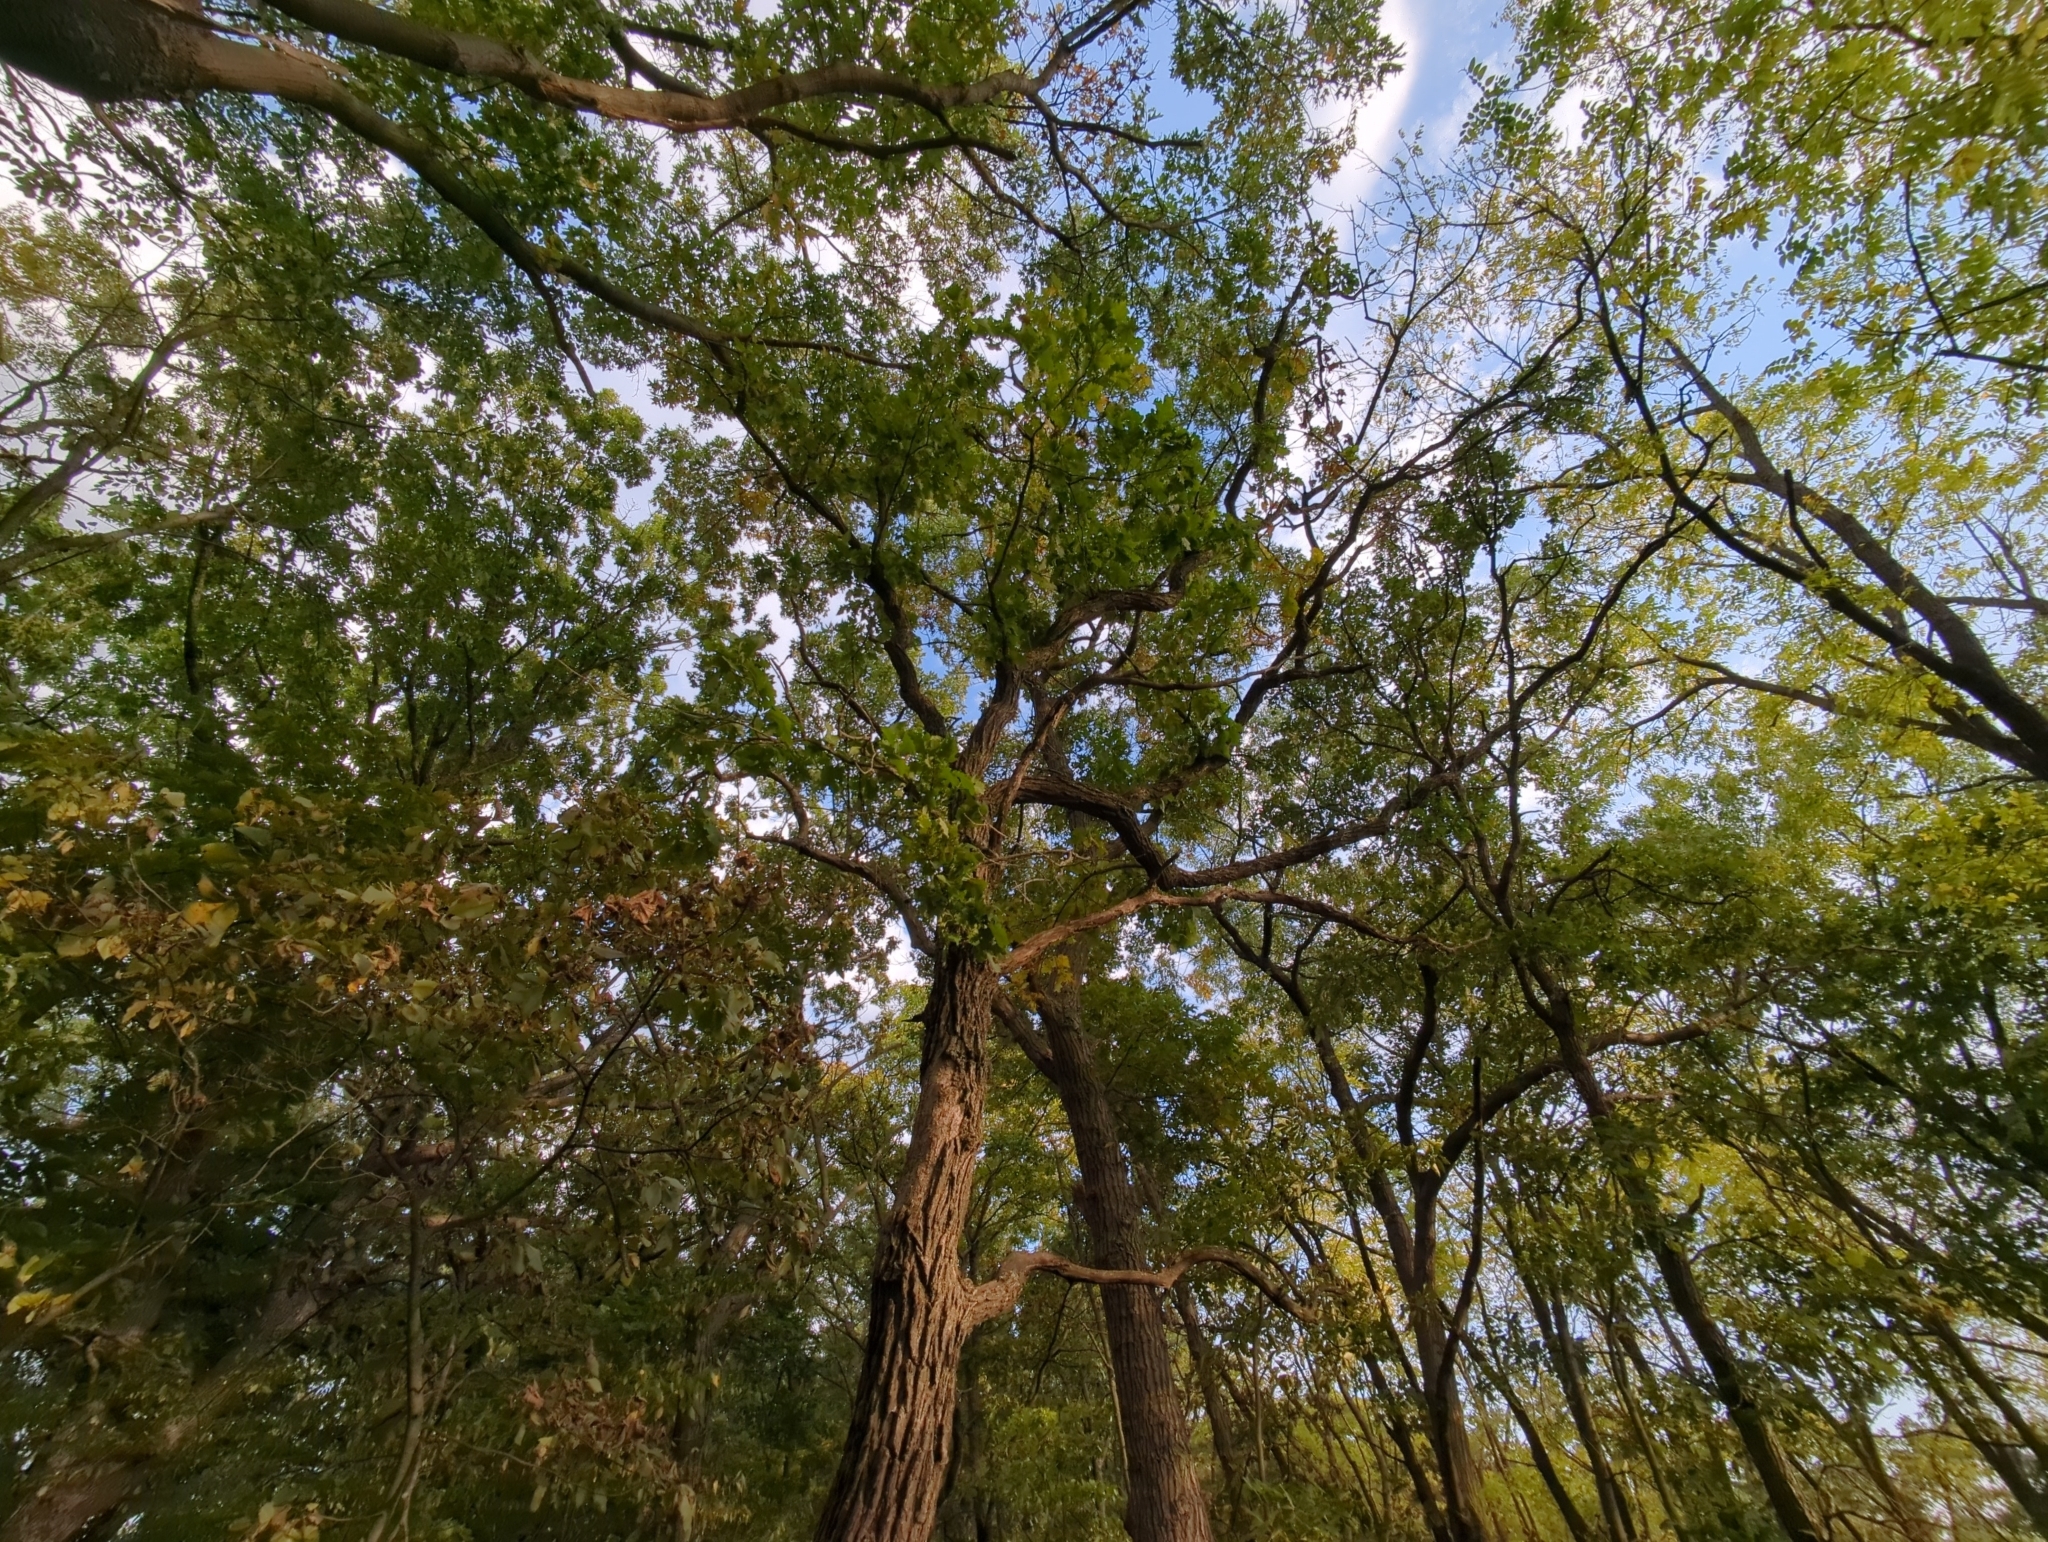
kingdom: Plantae
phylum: Tracheophyta
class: Magnoliopsida
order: Fagales
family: Fagaceae
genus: Quercus
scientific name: Quercus macrocarpa
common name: Bur oak
